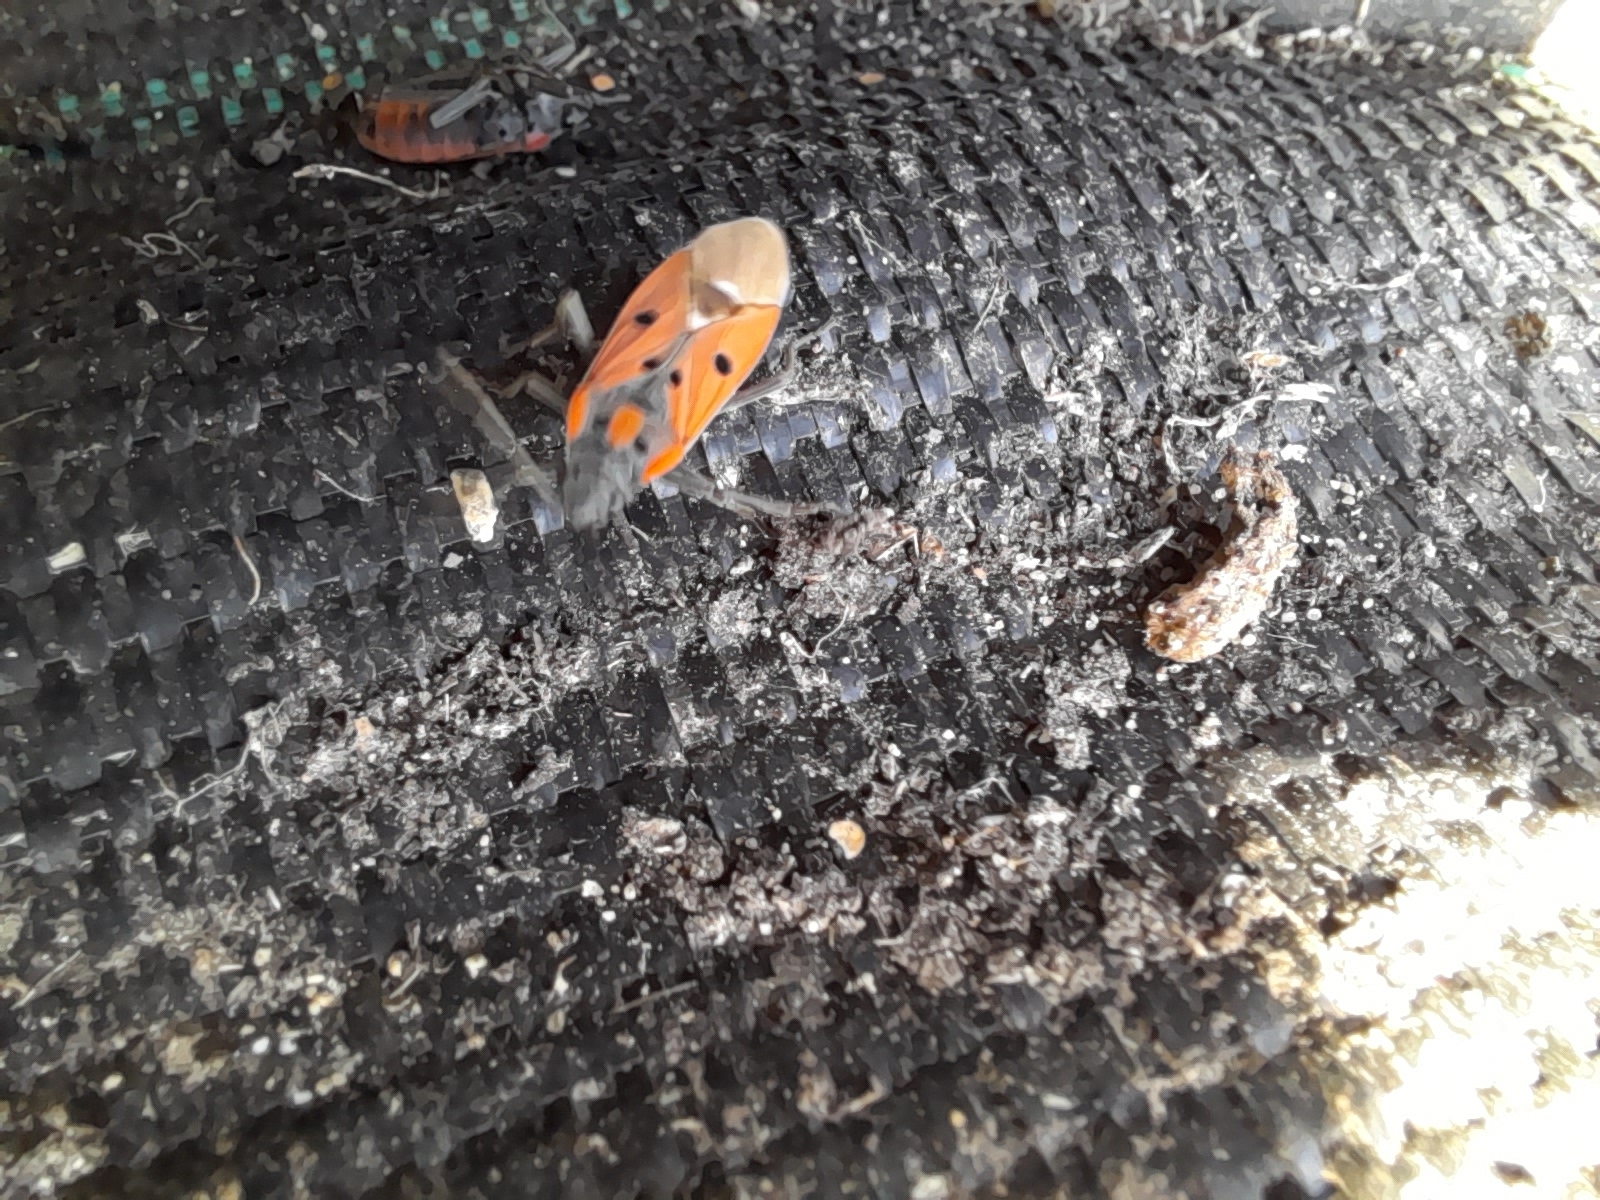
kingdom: Animalia
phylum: Arthropoda
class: Insecta
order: Hemiptera
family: Lygaeidae
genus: Lygaeus
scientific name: Lygaeus creticus
